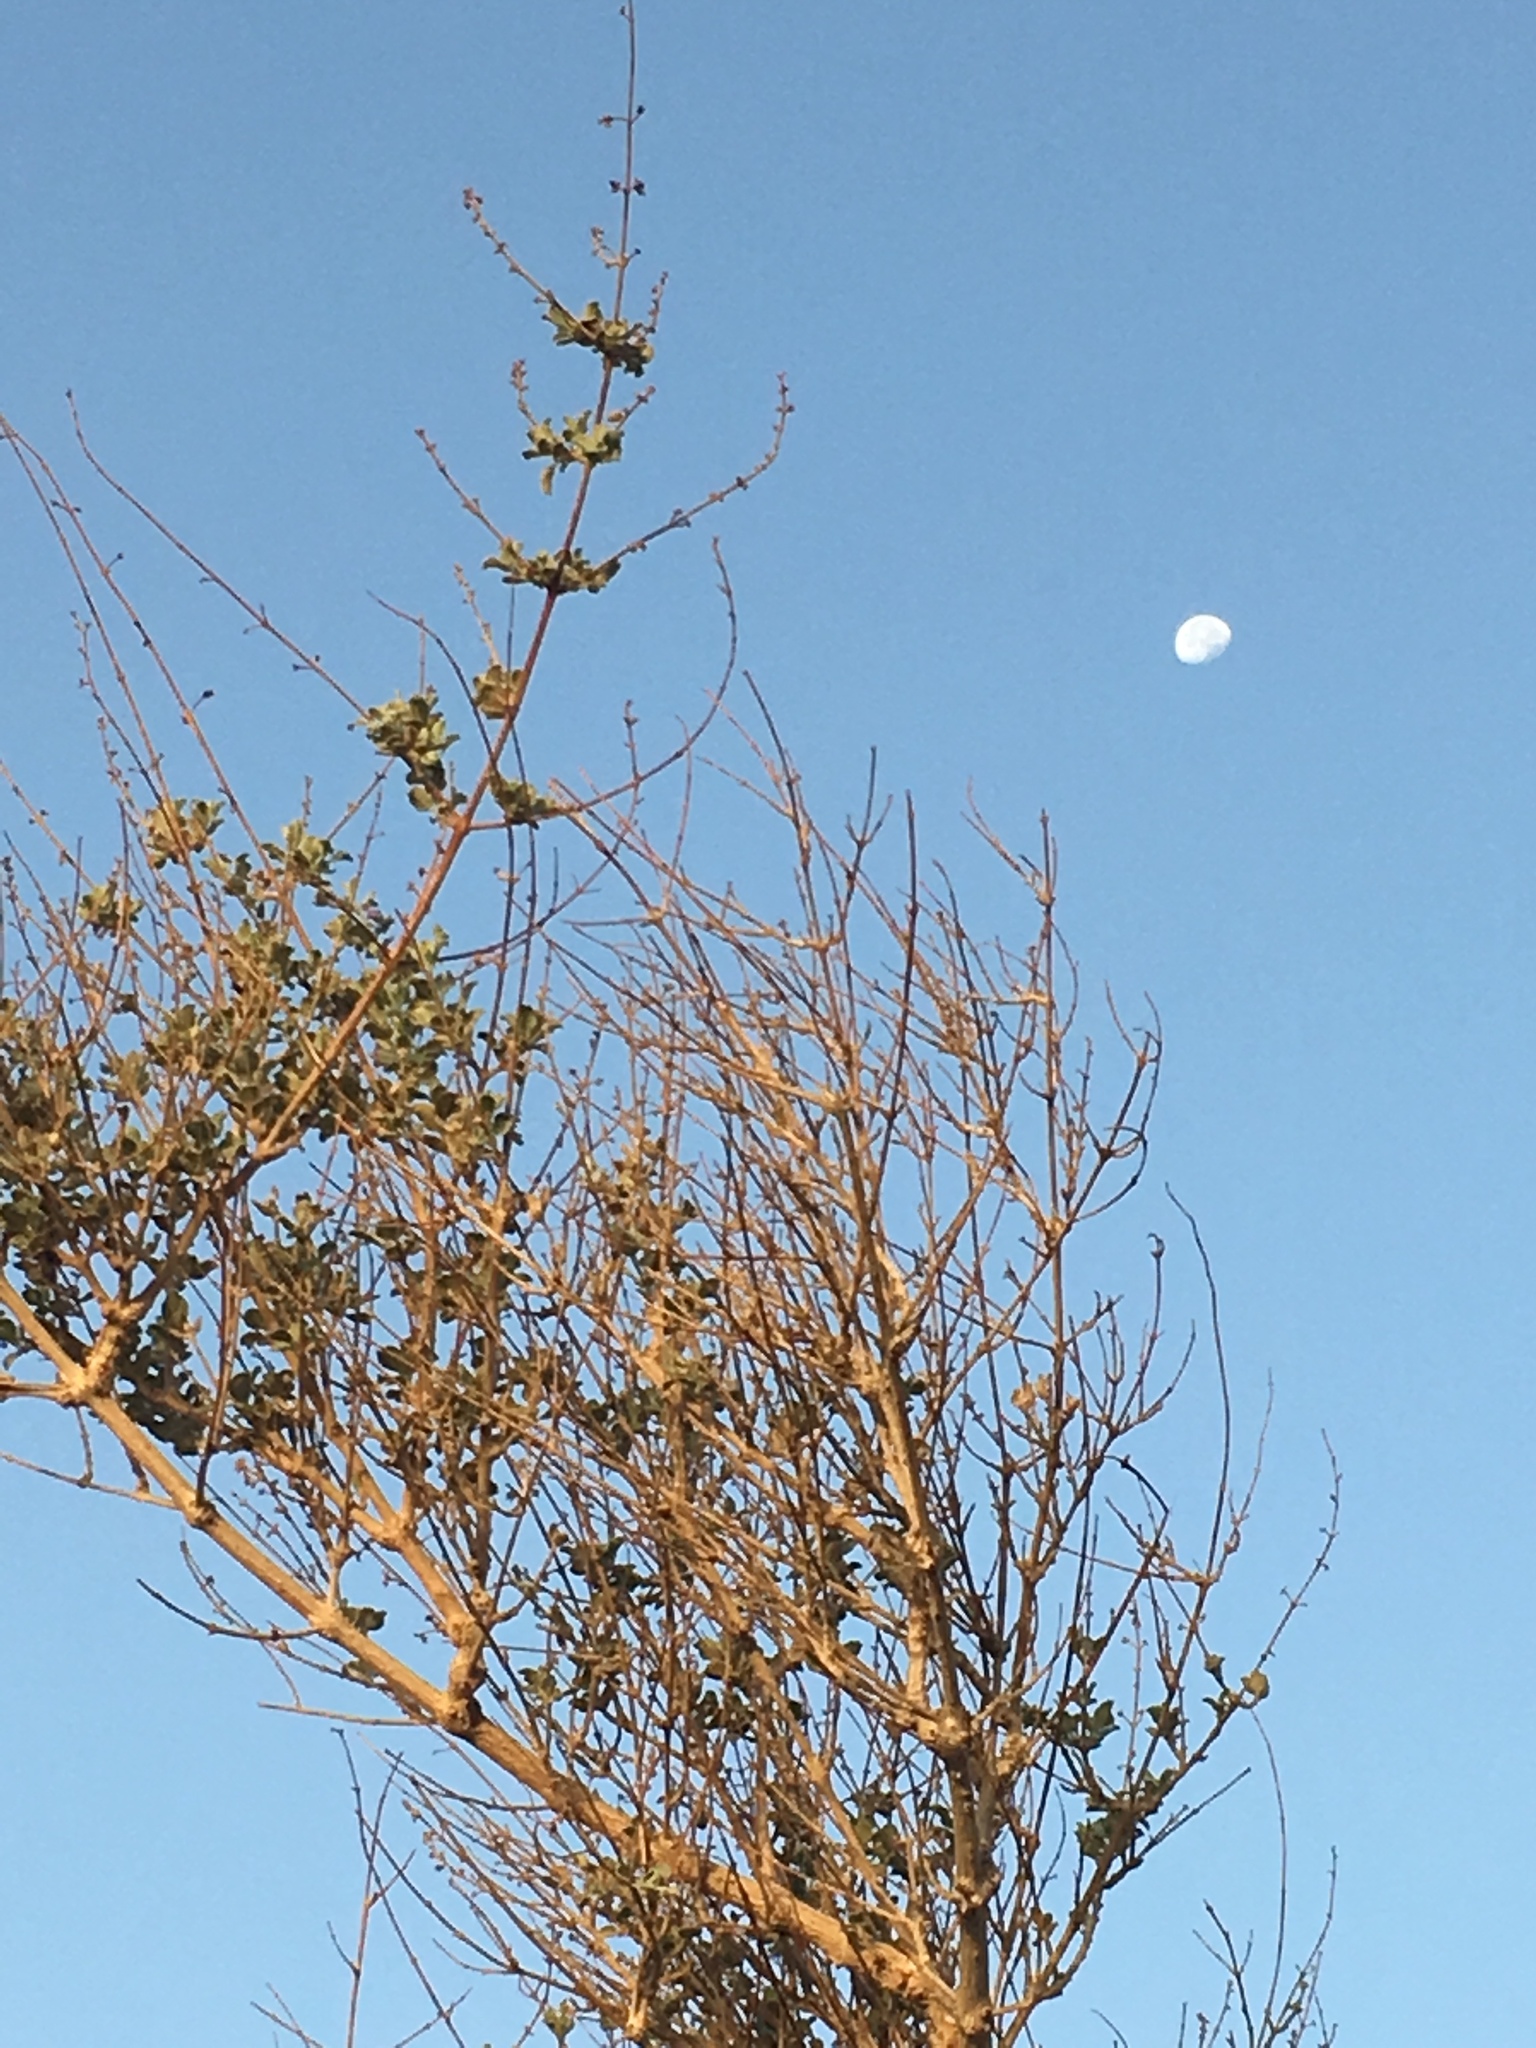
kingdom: Plantae
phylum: Tracheophyta
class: Magnoliopsida
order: Lamiales
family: Lamiaceae
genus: Condea
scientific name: Condea emoryi
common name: Chia
